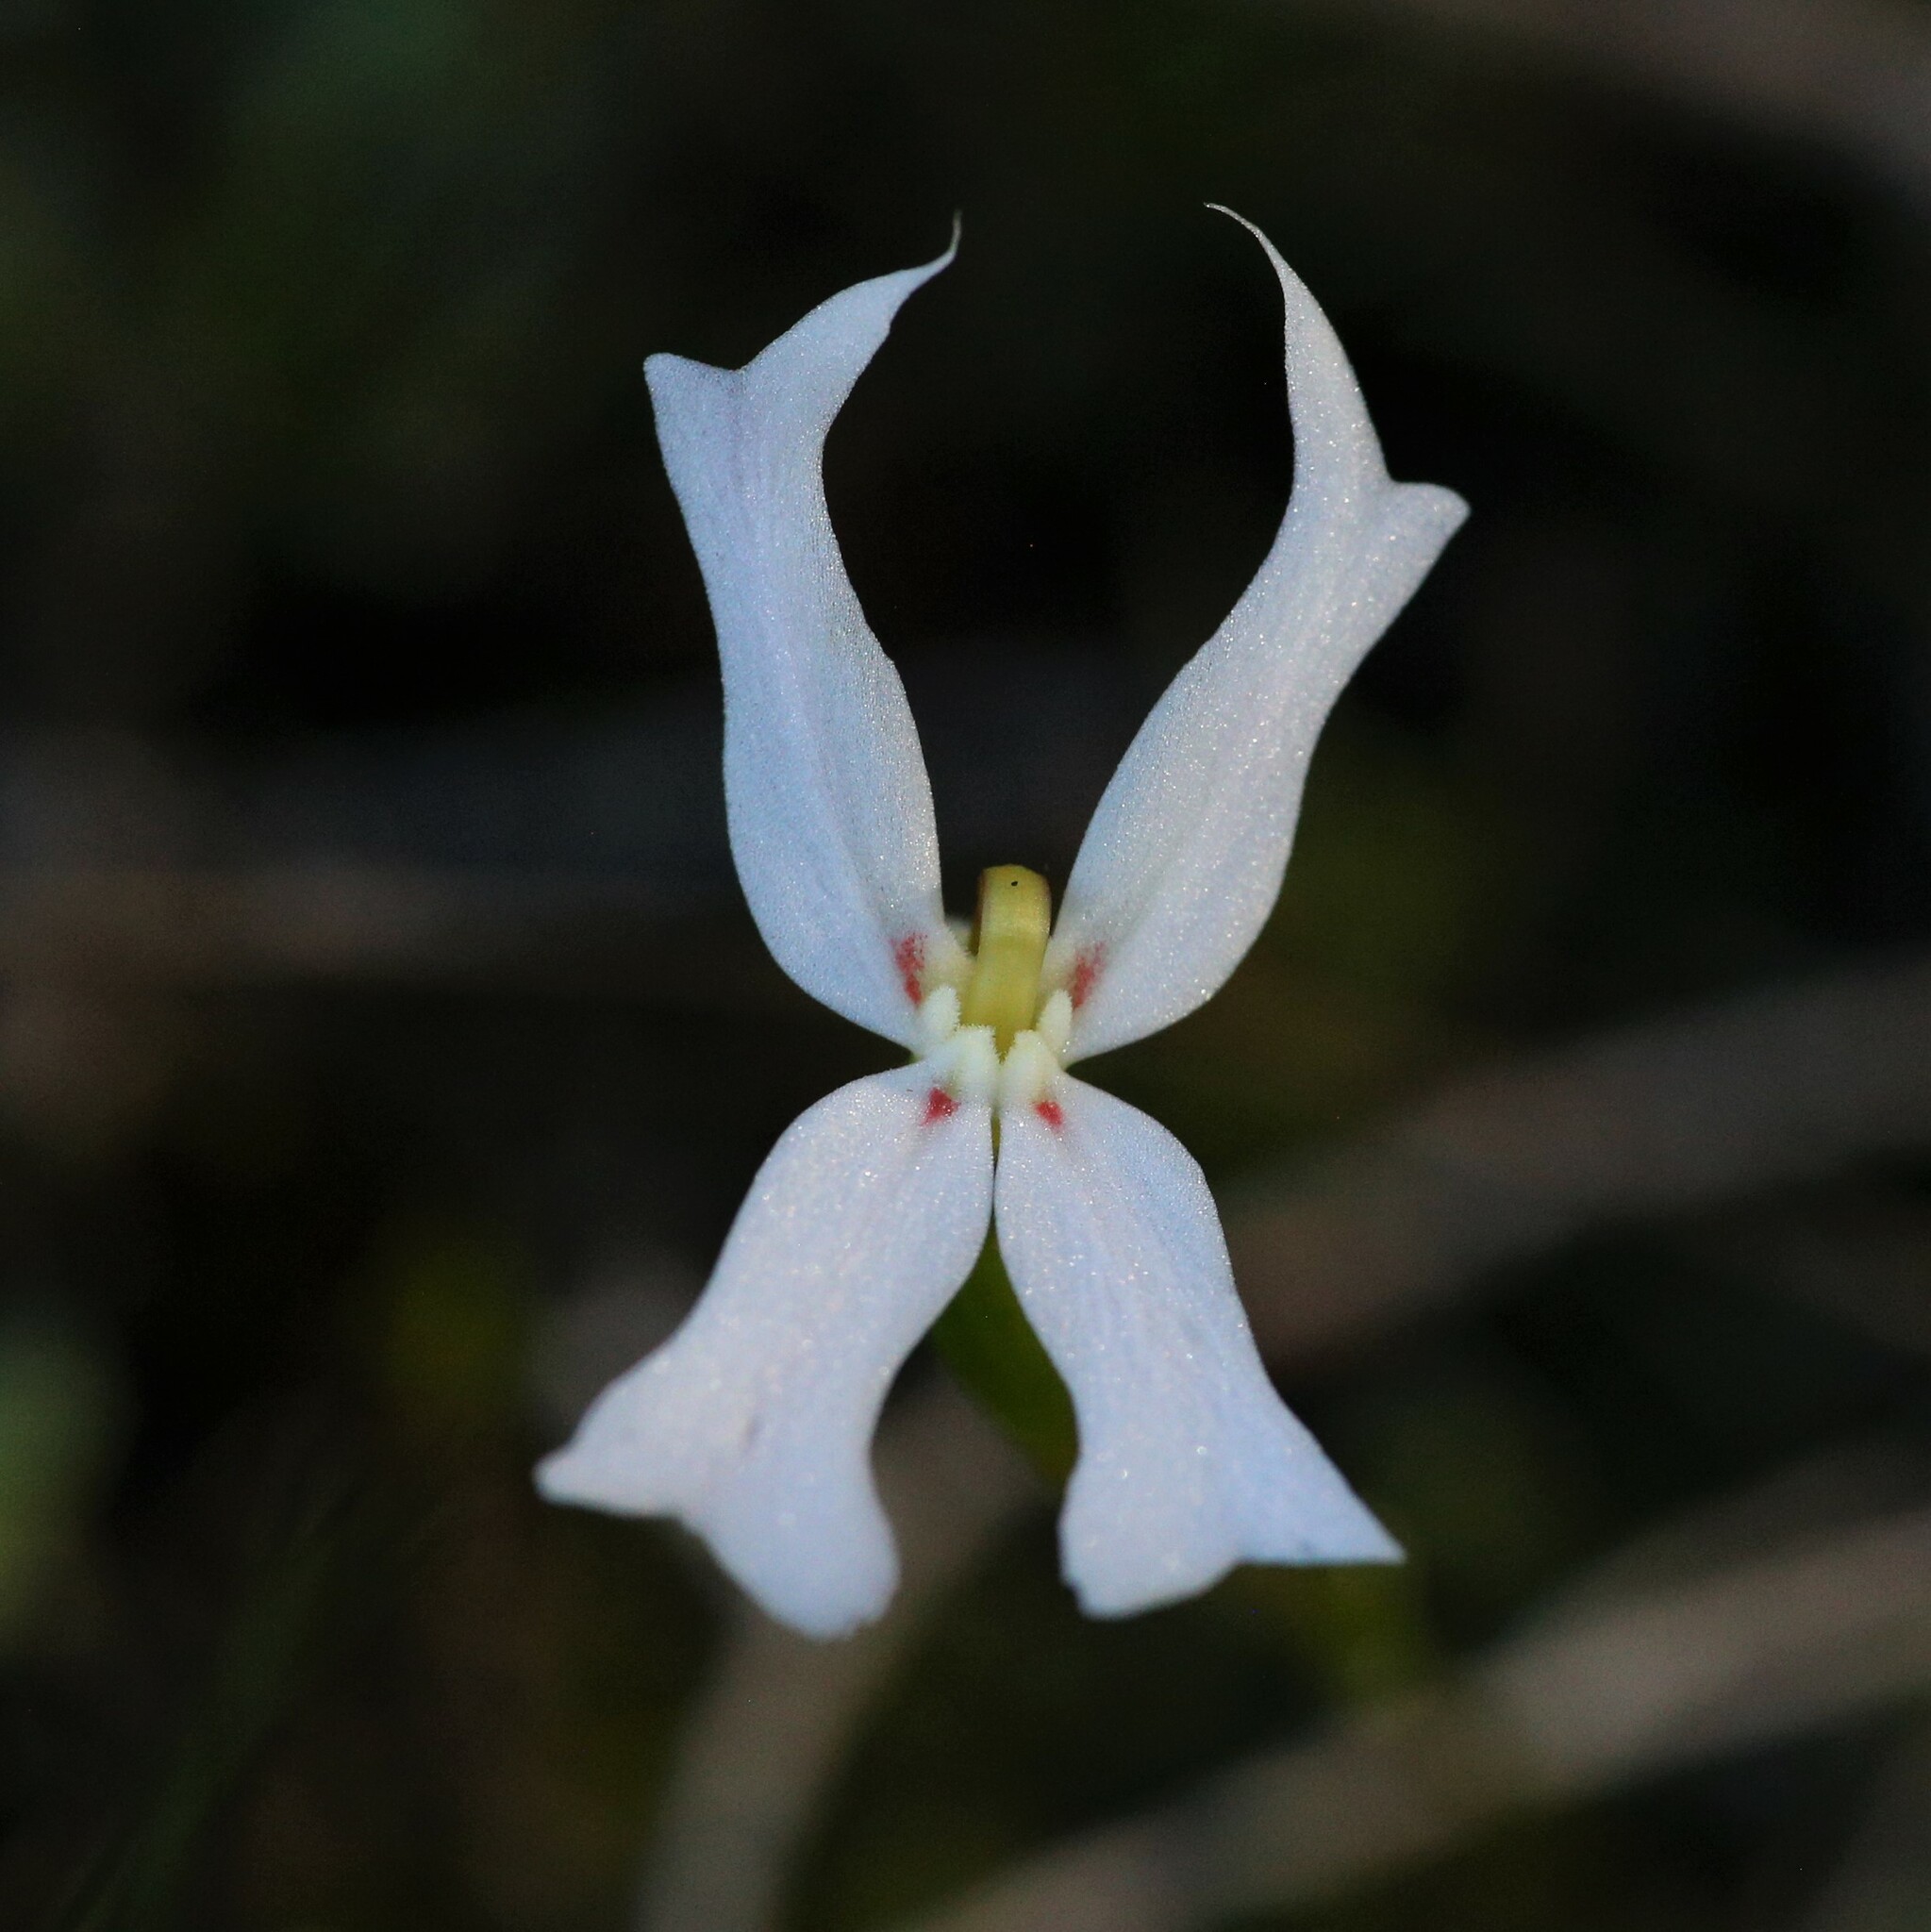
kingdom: Plantae
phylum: Tracheophyta
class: Magnoliopsida
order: Asterales
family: Stylidiaceae
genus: Stylidium
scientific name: Stylidium emarginatum
